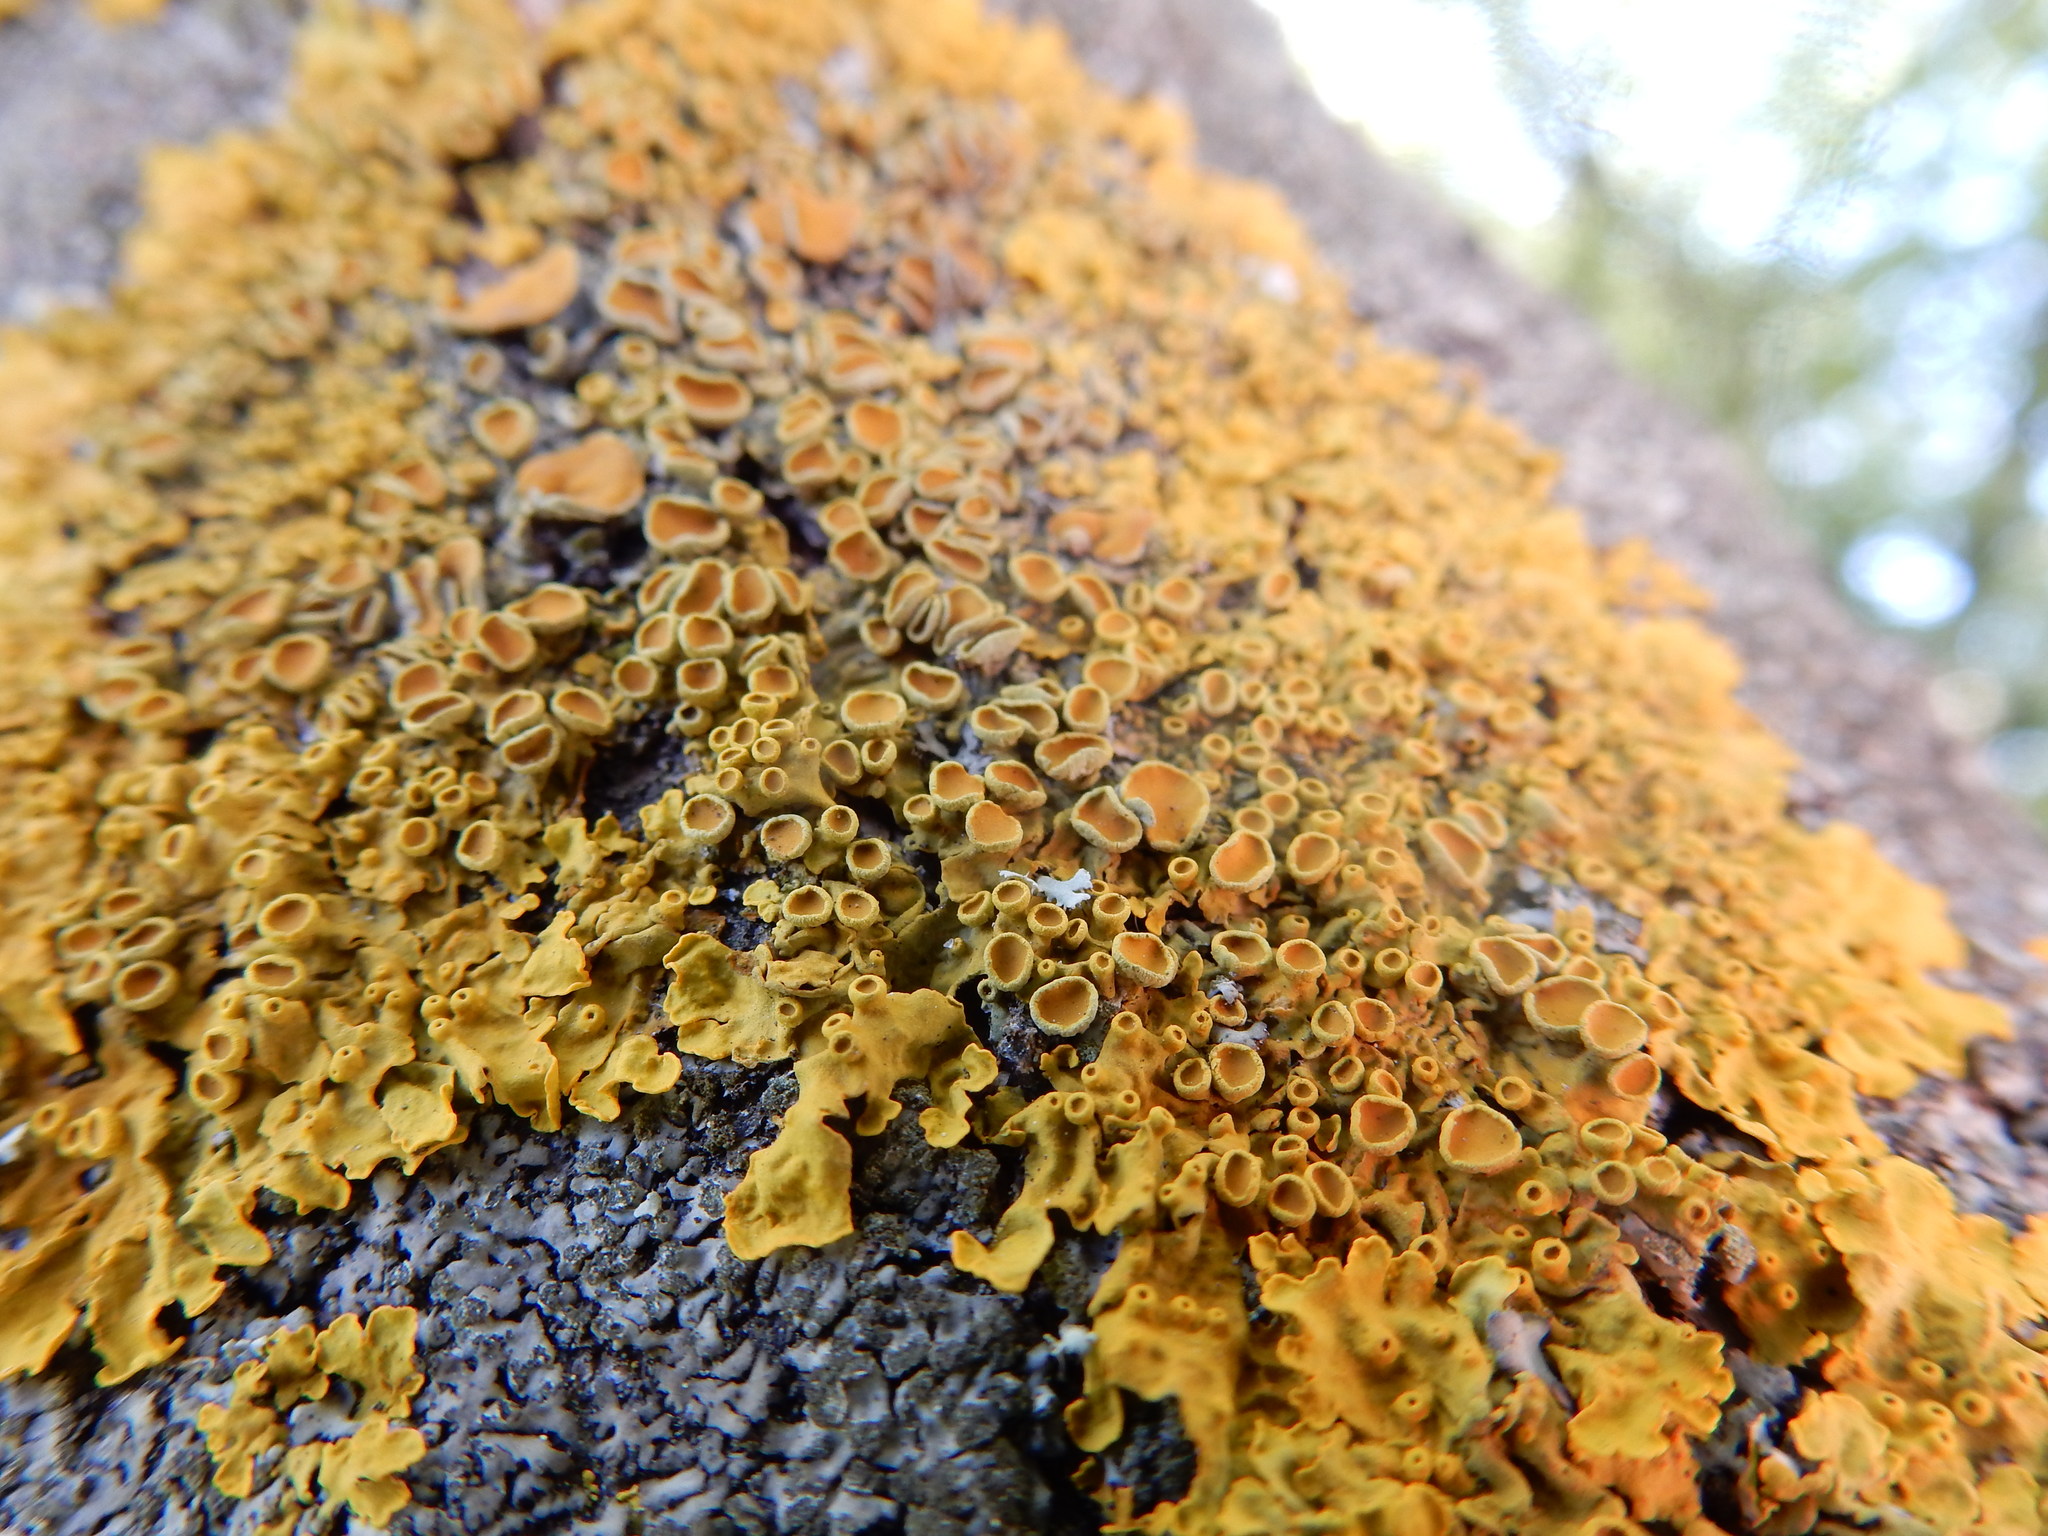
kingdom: Fungi
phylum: Ascomycota
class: Lecanoromycetes
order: Teloschistales
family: Teloschistaceae
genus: Xanthoria
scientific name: Xanthoria parietina
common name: Common orange lichen
